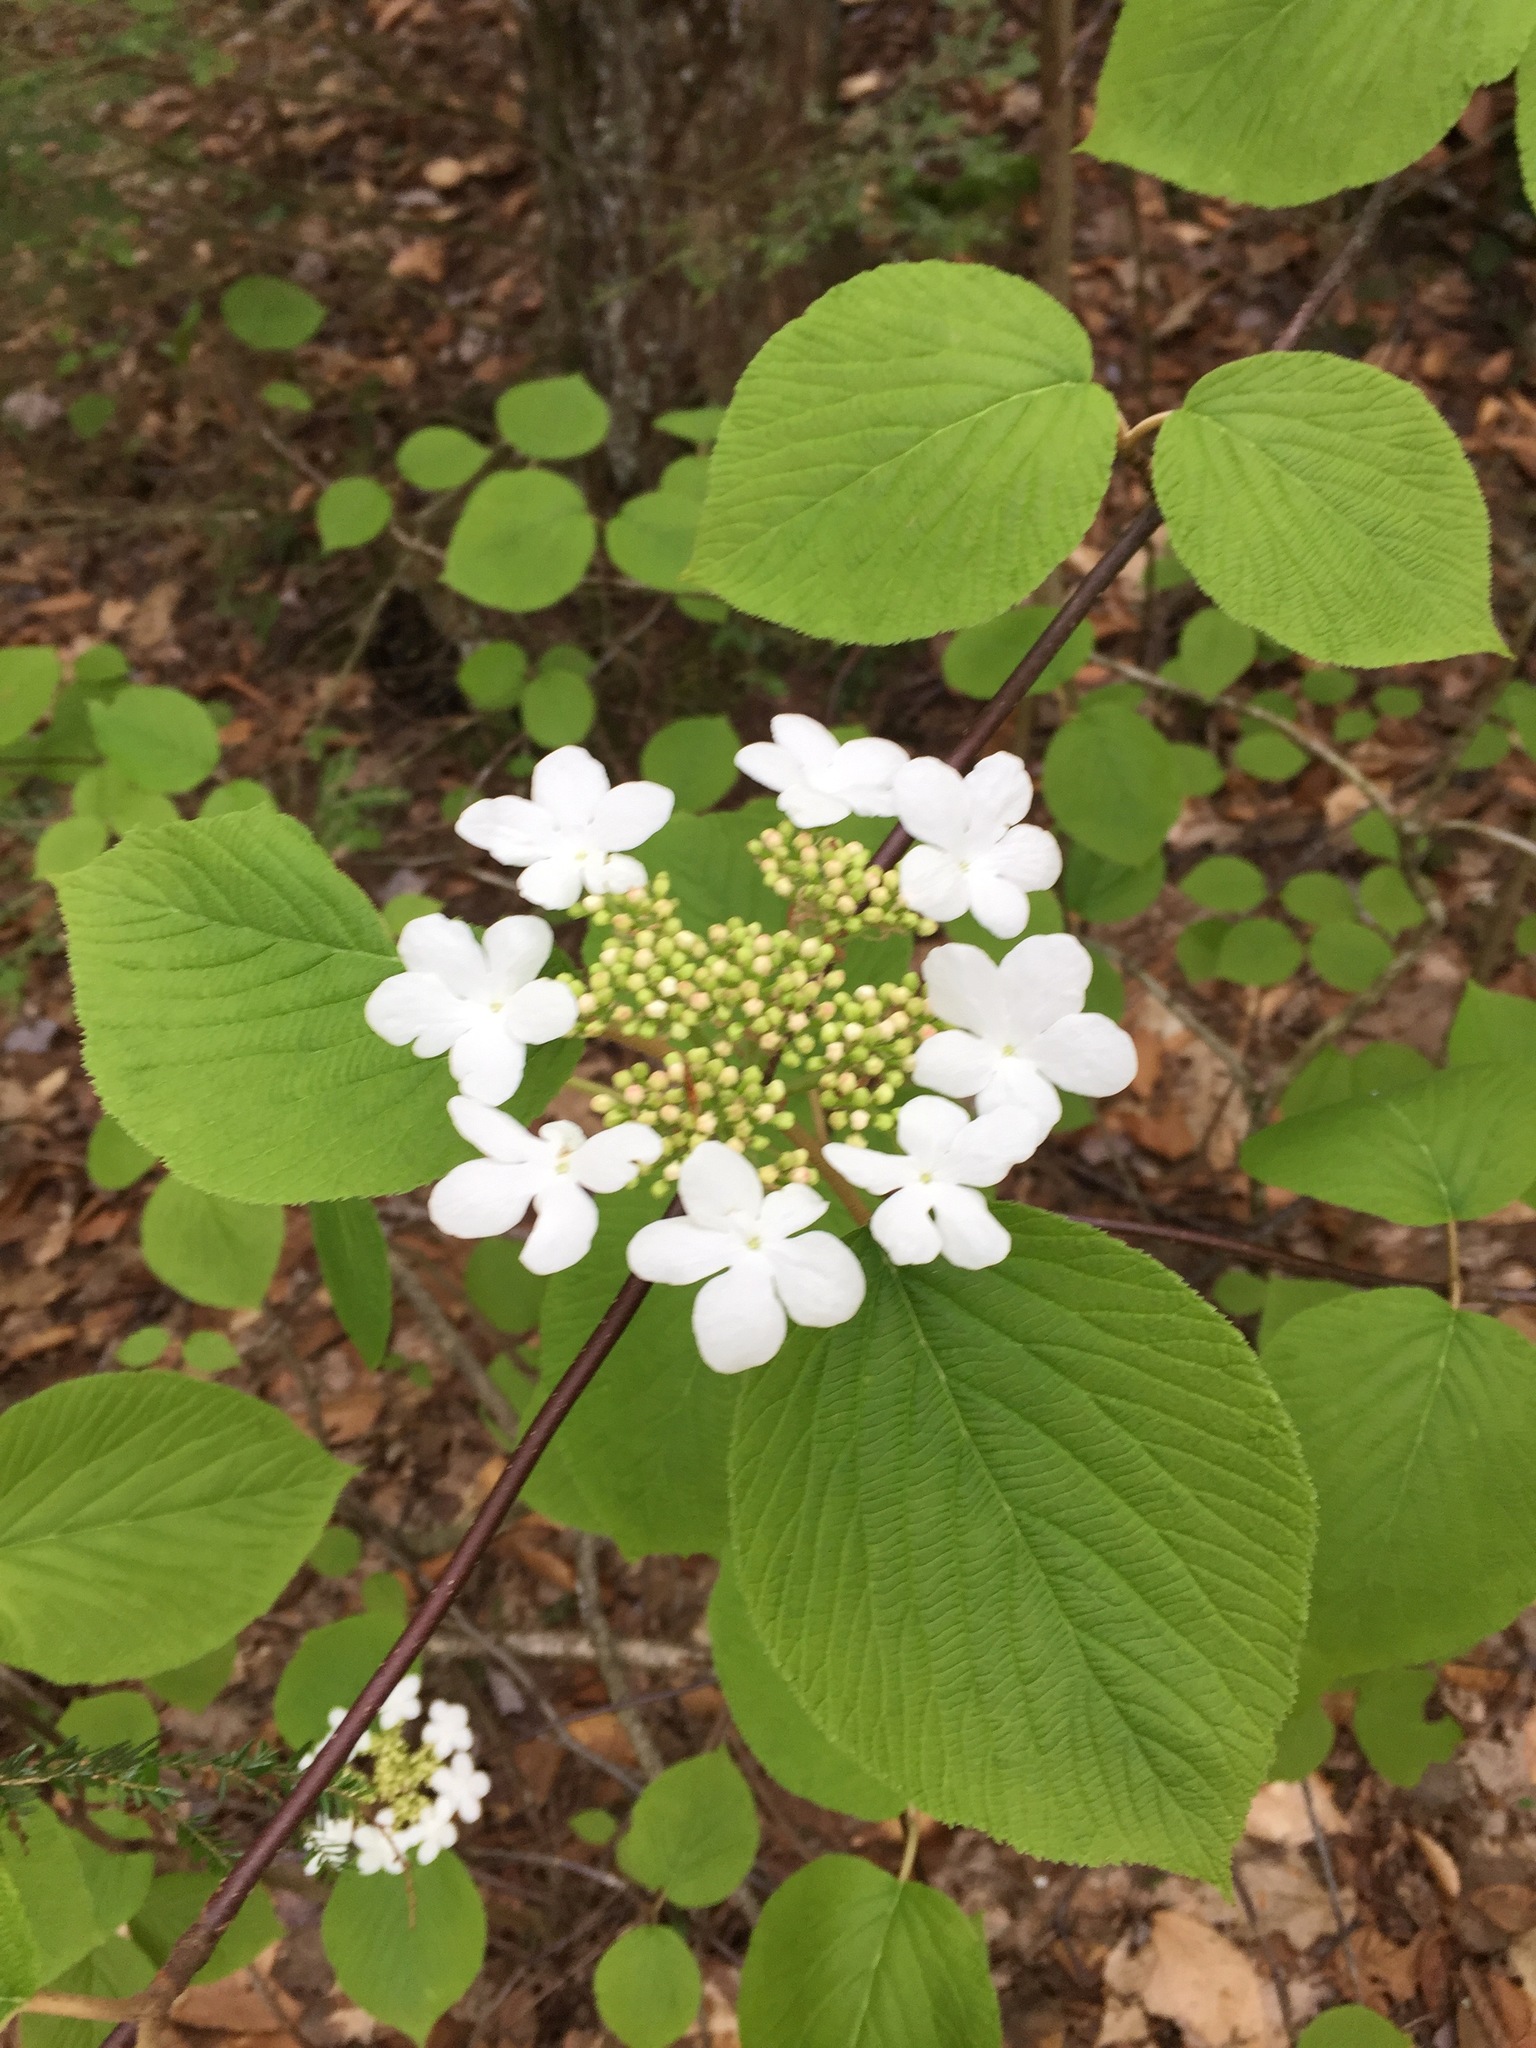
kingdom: Plantae
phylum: Tracheophyta
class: Magnoliopsida
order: Dipsacales
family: Viburnaceae
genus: Viburnum
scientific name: Viburnum lantanoides
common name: Hobblebush
